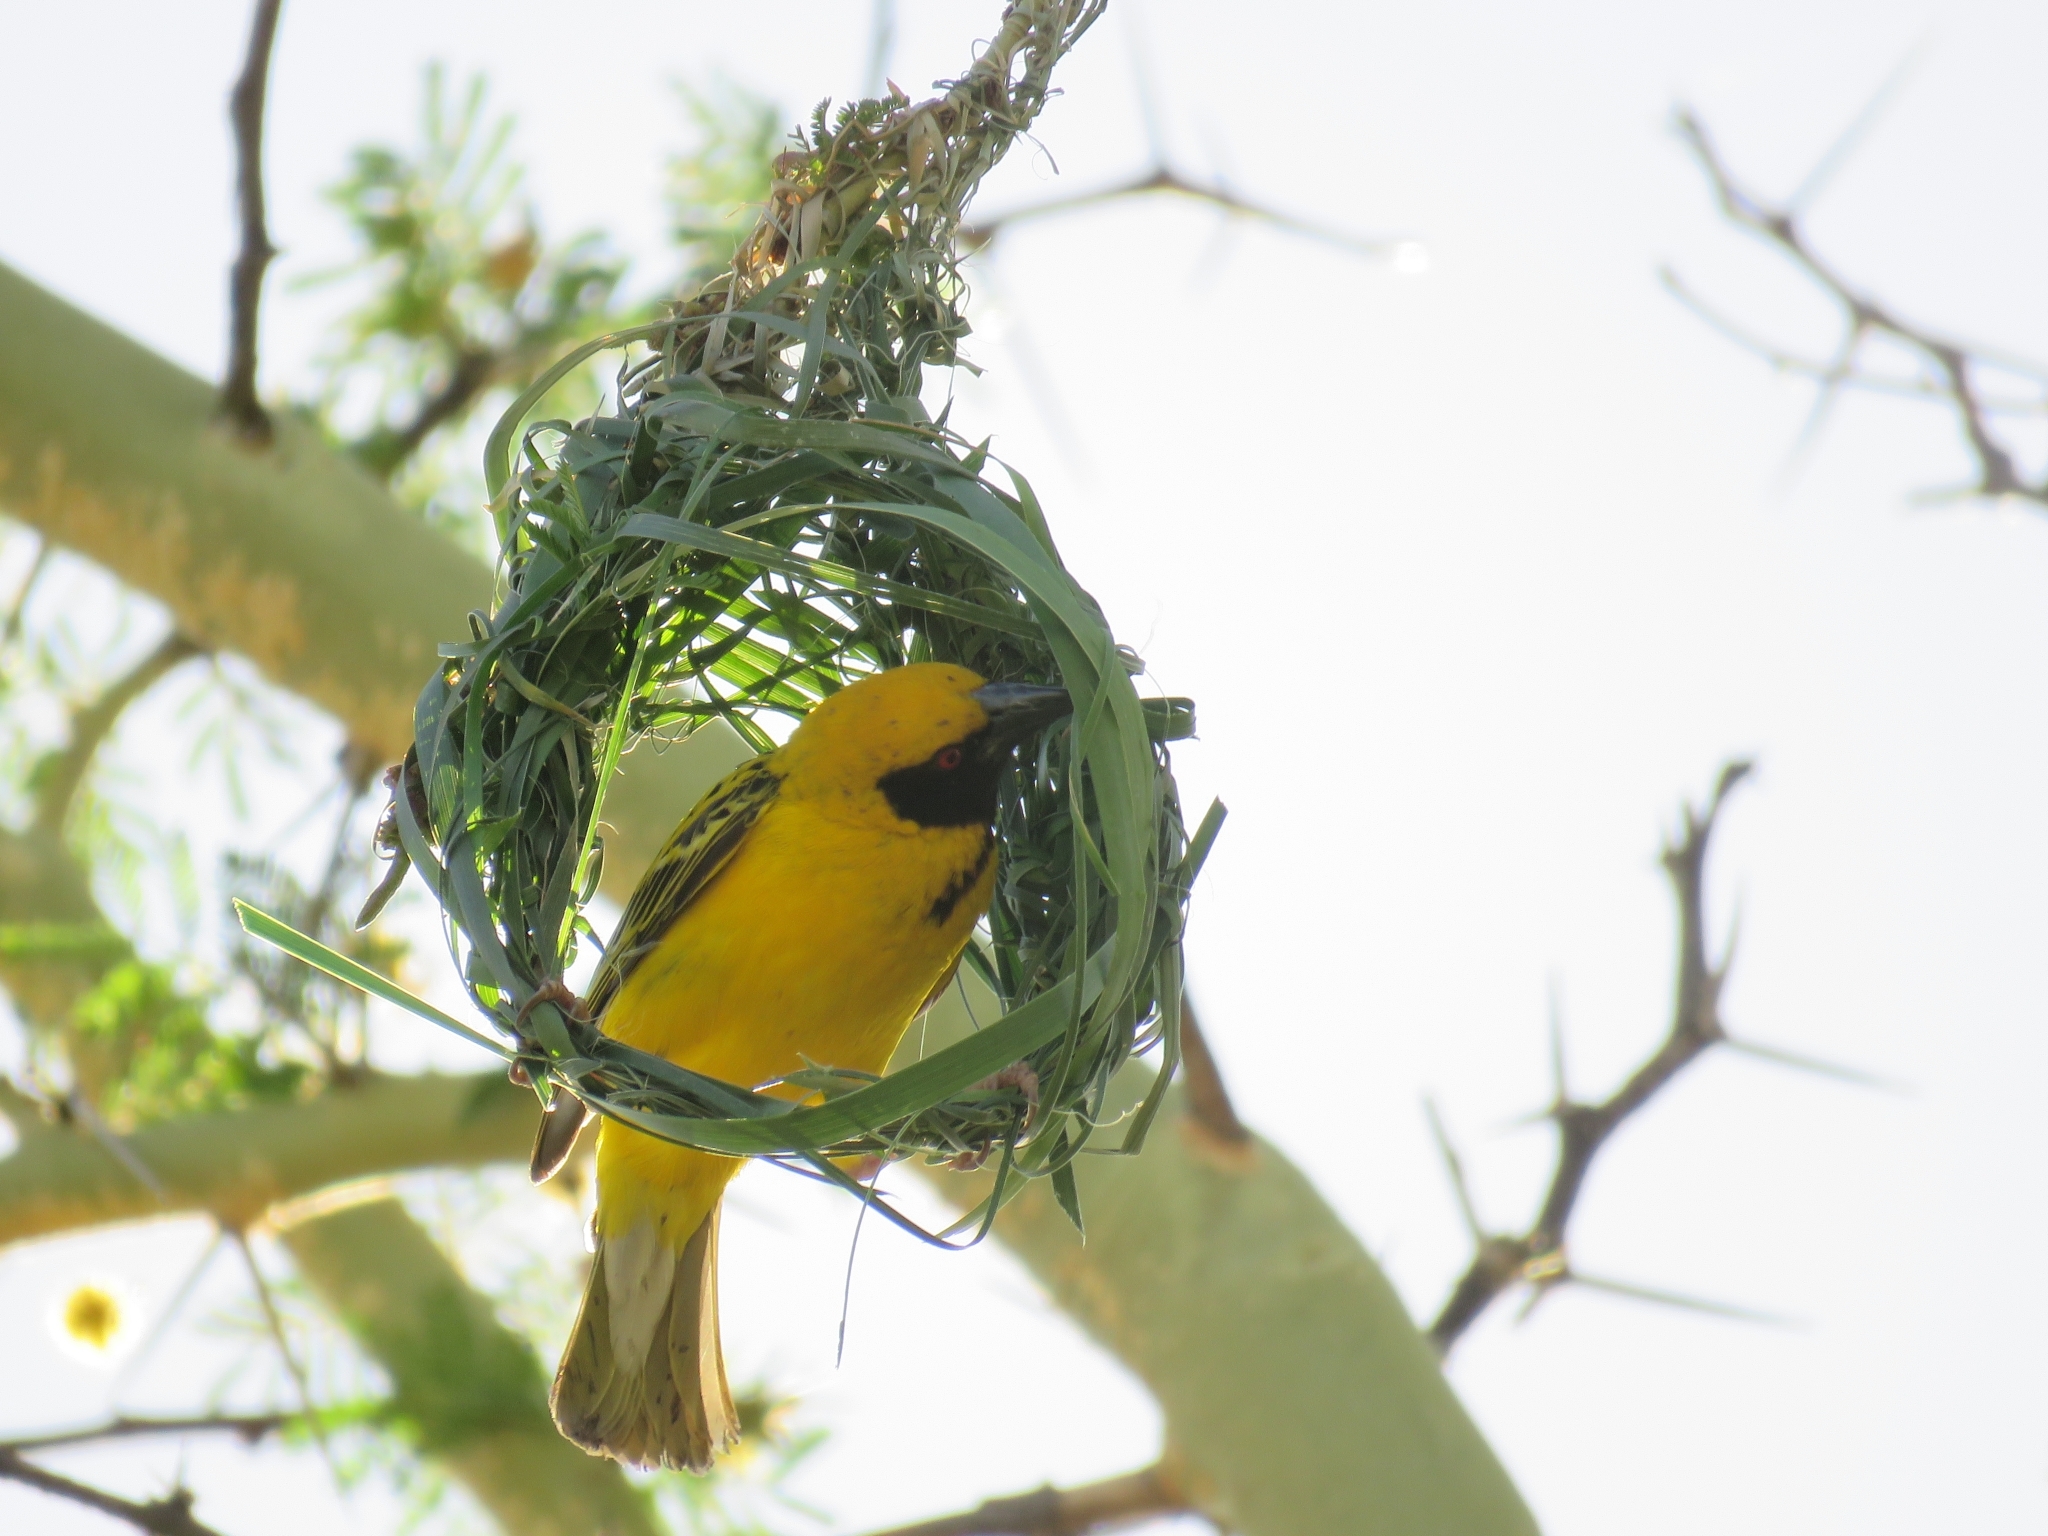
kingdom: Animalia
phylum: Chordata
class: Aves
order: Passeriformes
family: Ploceidae
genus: Ploceus
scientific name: Ploceus cucullatus
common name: Village weaver
